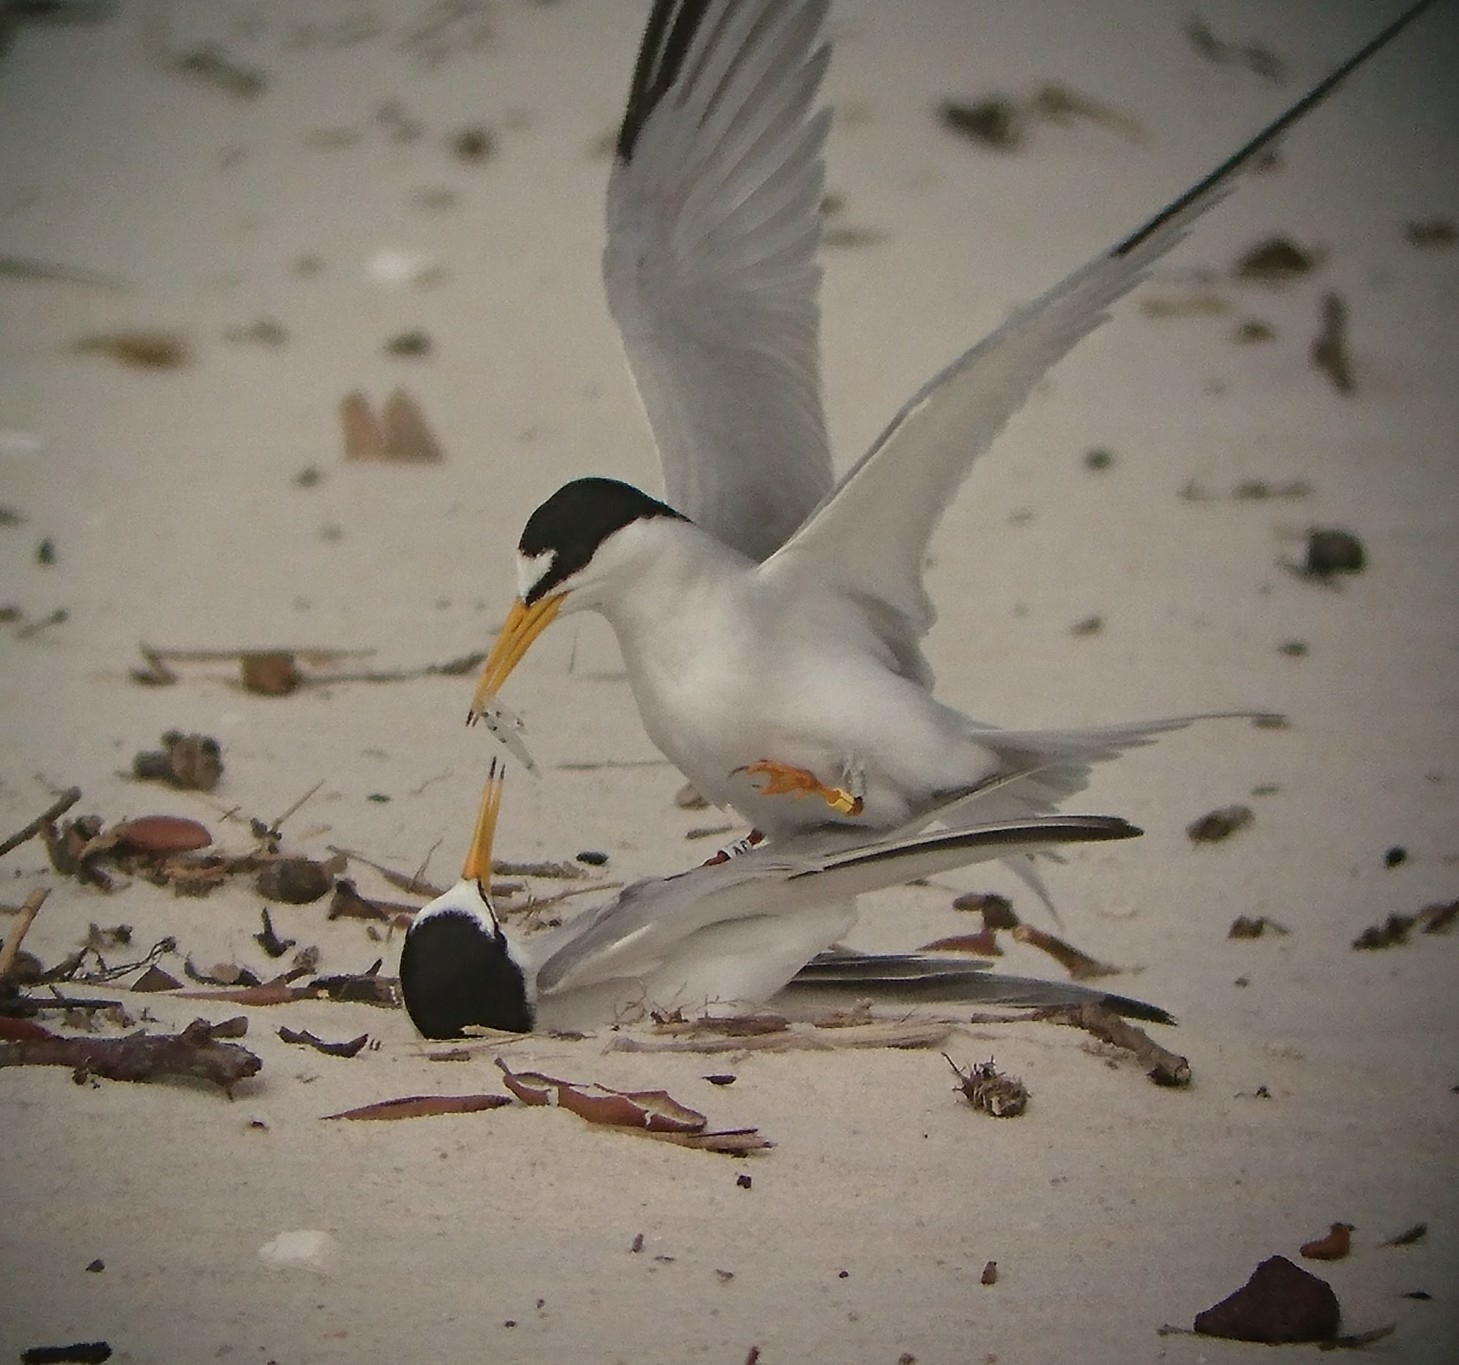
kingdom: Animalia
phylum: Chordata
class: Aves
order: Charadriiformes
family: Laridae
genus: Sternula
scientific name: Sternula antillarum
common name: Least tern
